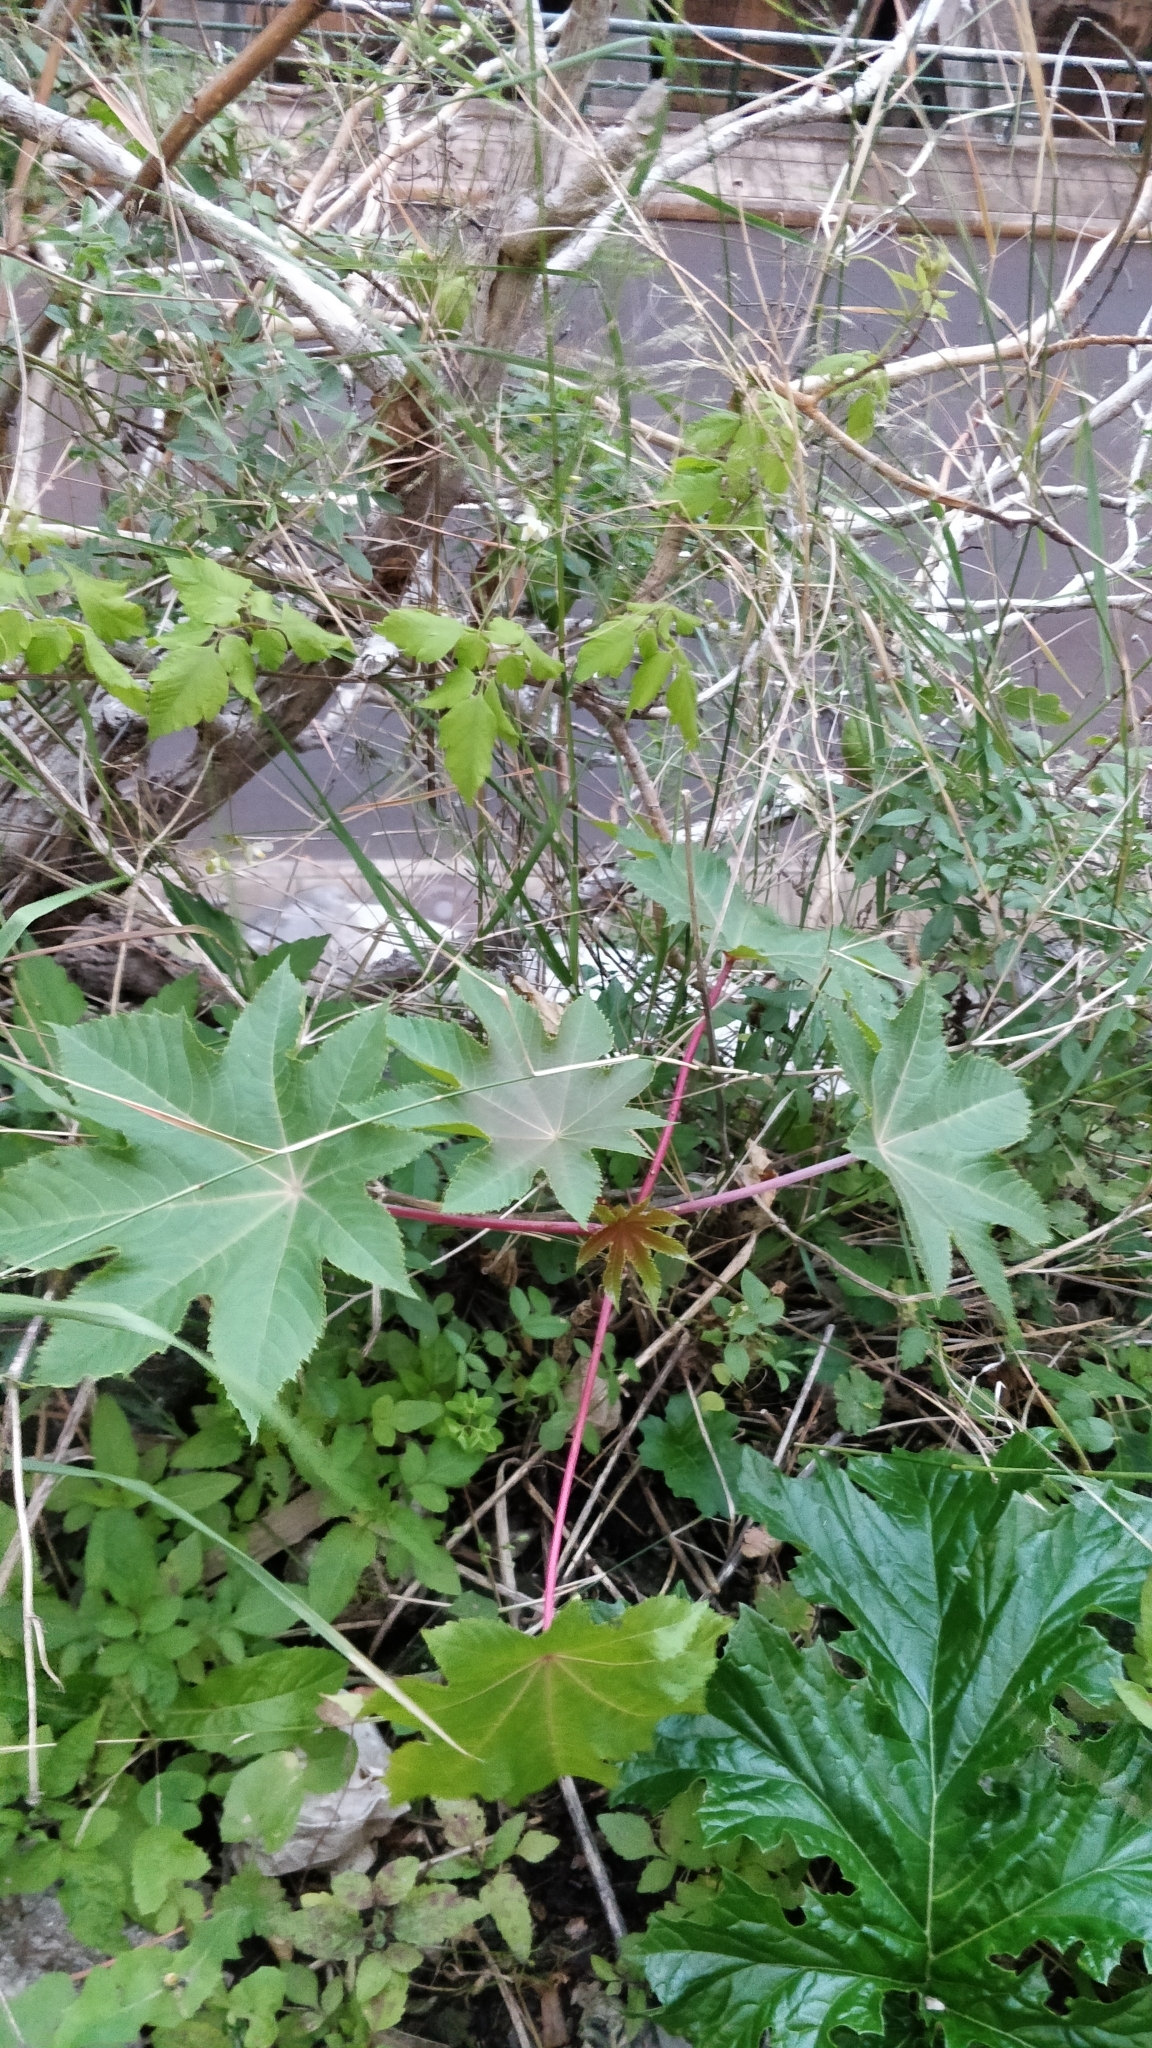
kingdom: Plantae
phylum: Tracheophyta
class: Magnoliopsida
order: Malpighiales
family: Euphorbiaceae
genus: Ricinus
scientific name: Ricinus communis
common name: Castor-oil-plant
